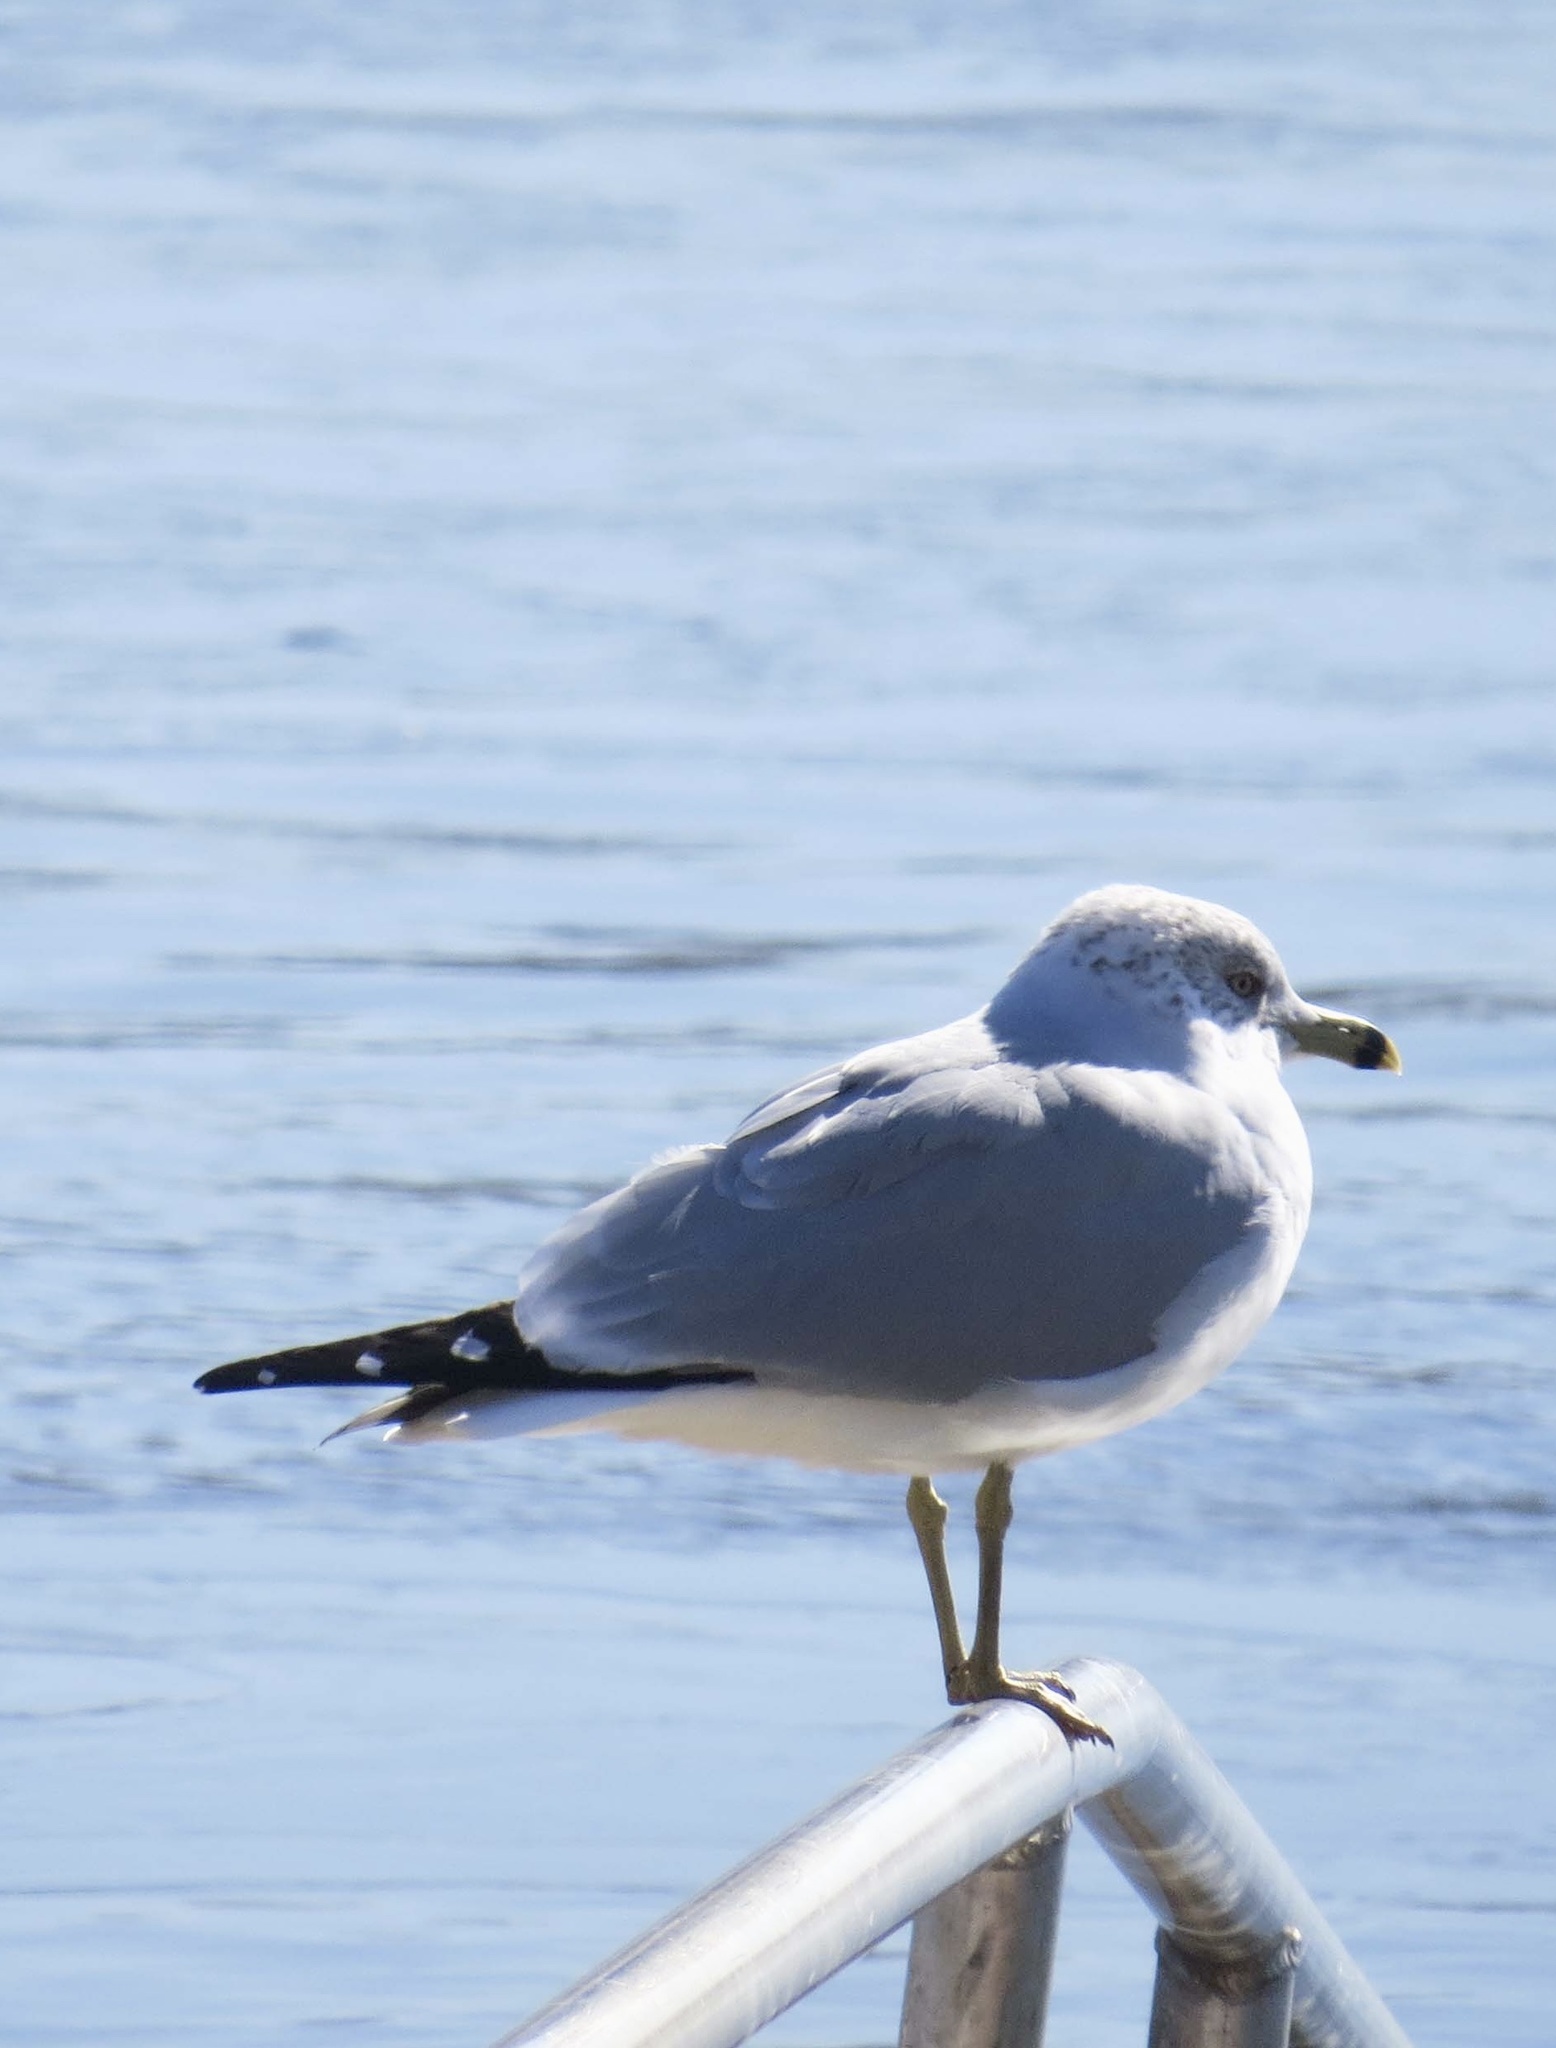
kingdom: Animalia
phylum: Chordata
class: Aves
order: Charadriiformes
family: Laridae
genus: Larus
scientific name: Larus delawarensis
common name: Ring-billed gull
